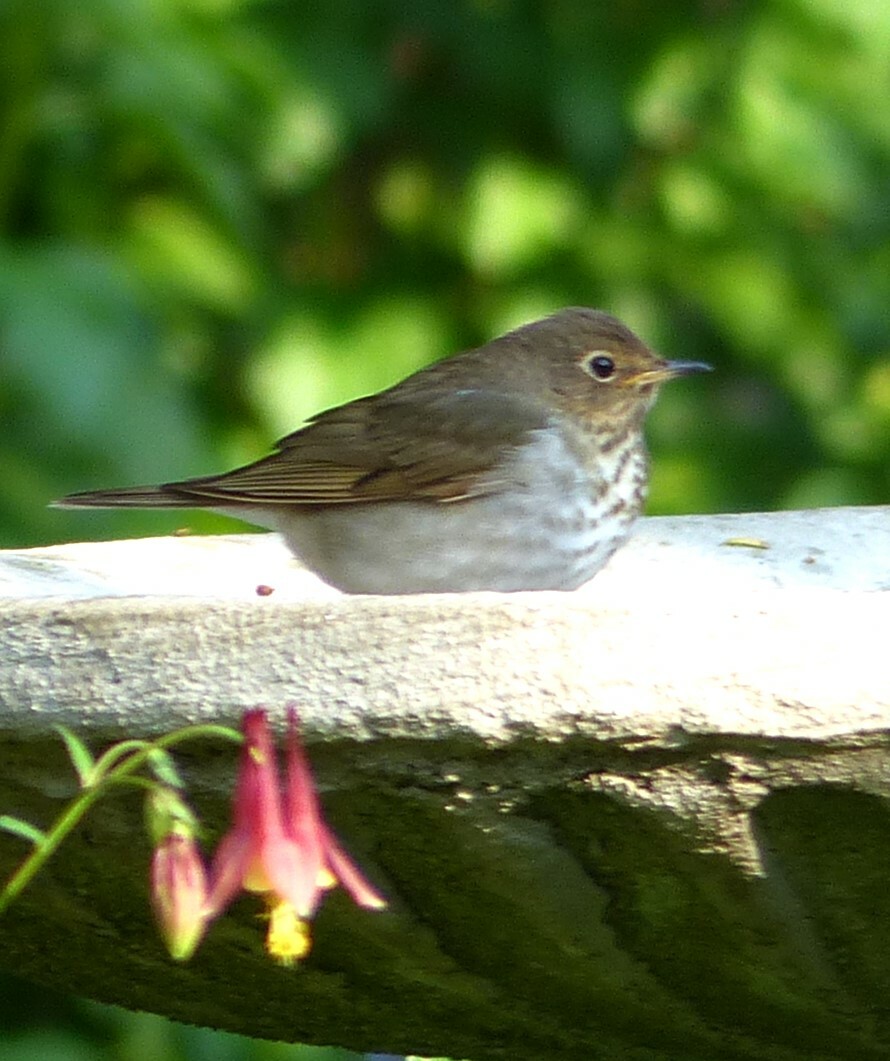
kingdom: Animalia
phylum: Chordata
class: Aves
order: Passeriformes
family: Turdidae
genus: Catharus
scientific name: Catharus ustulatus
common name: Swainson's thrush
